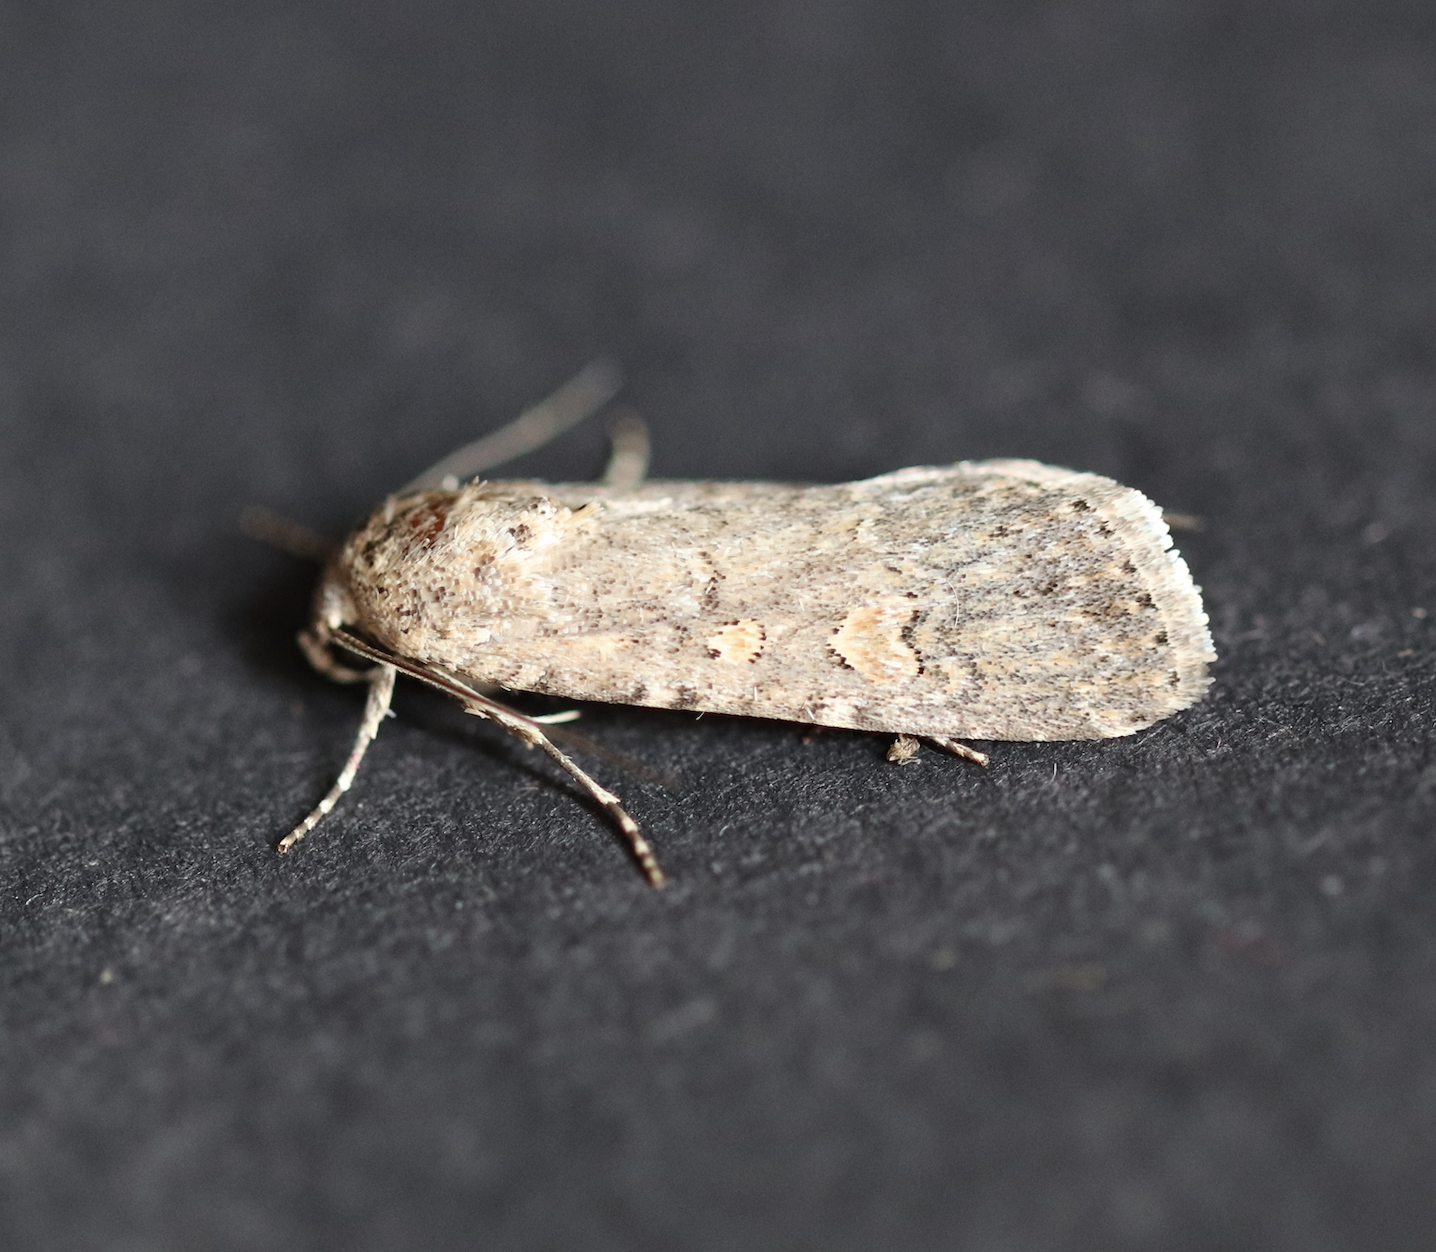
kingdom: Animalia
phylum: Arthropoda
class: Insecta
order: Lepidoptera
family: Noctuidae
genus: Spodoptera
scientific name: Spodoptera exigua
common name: Beet armyworm
